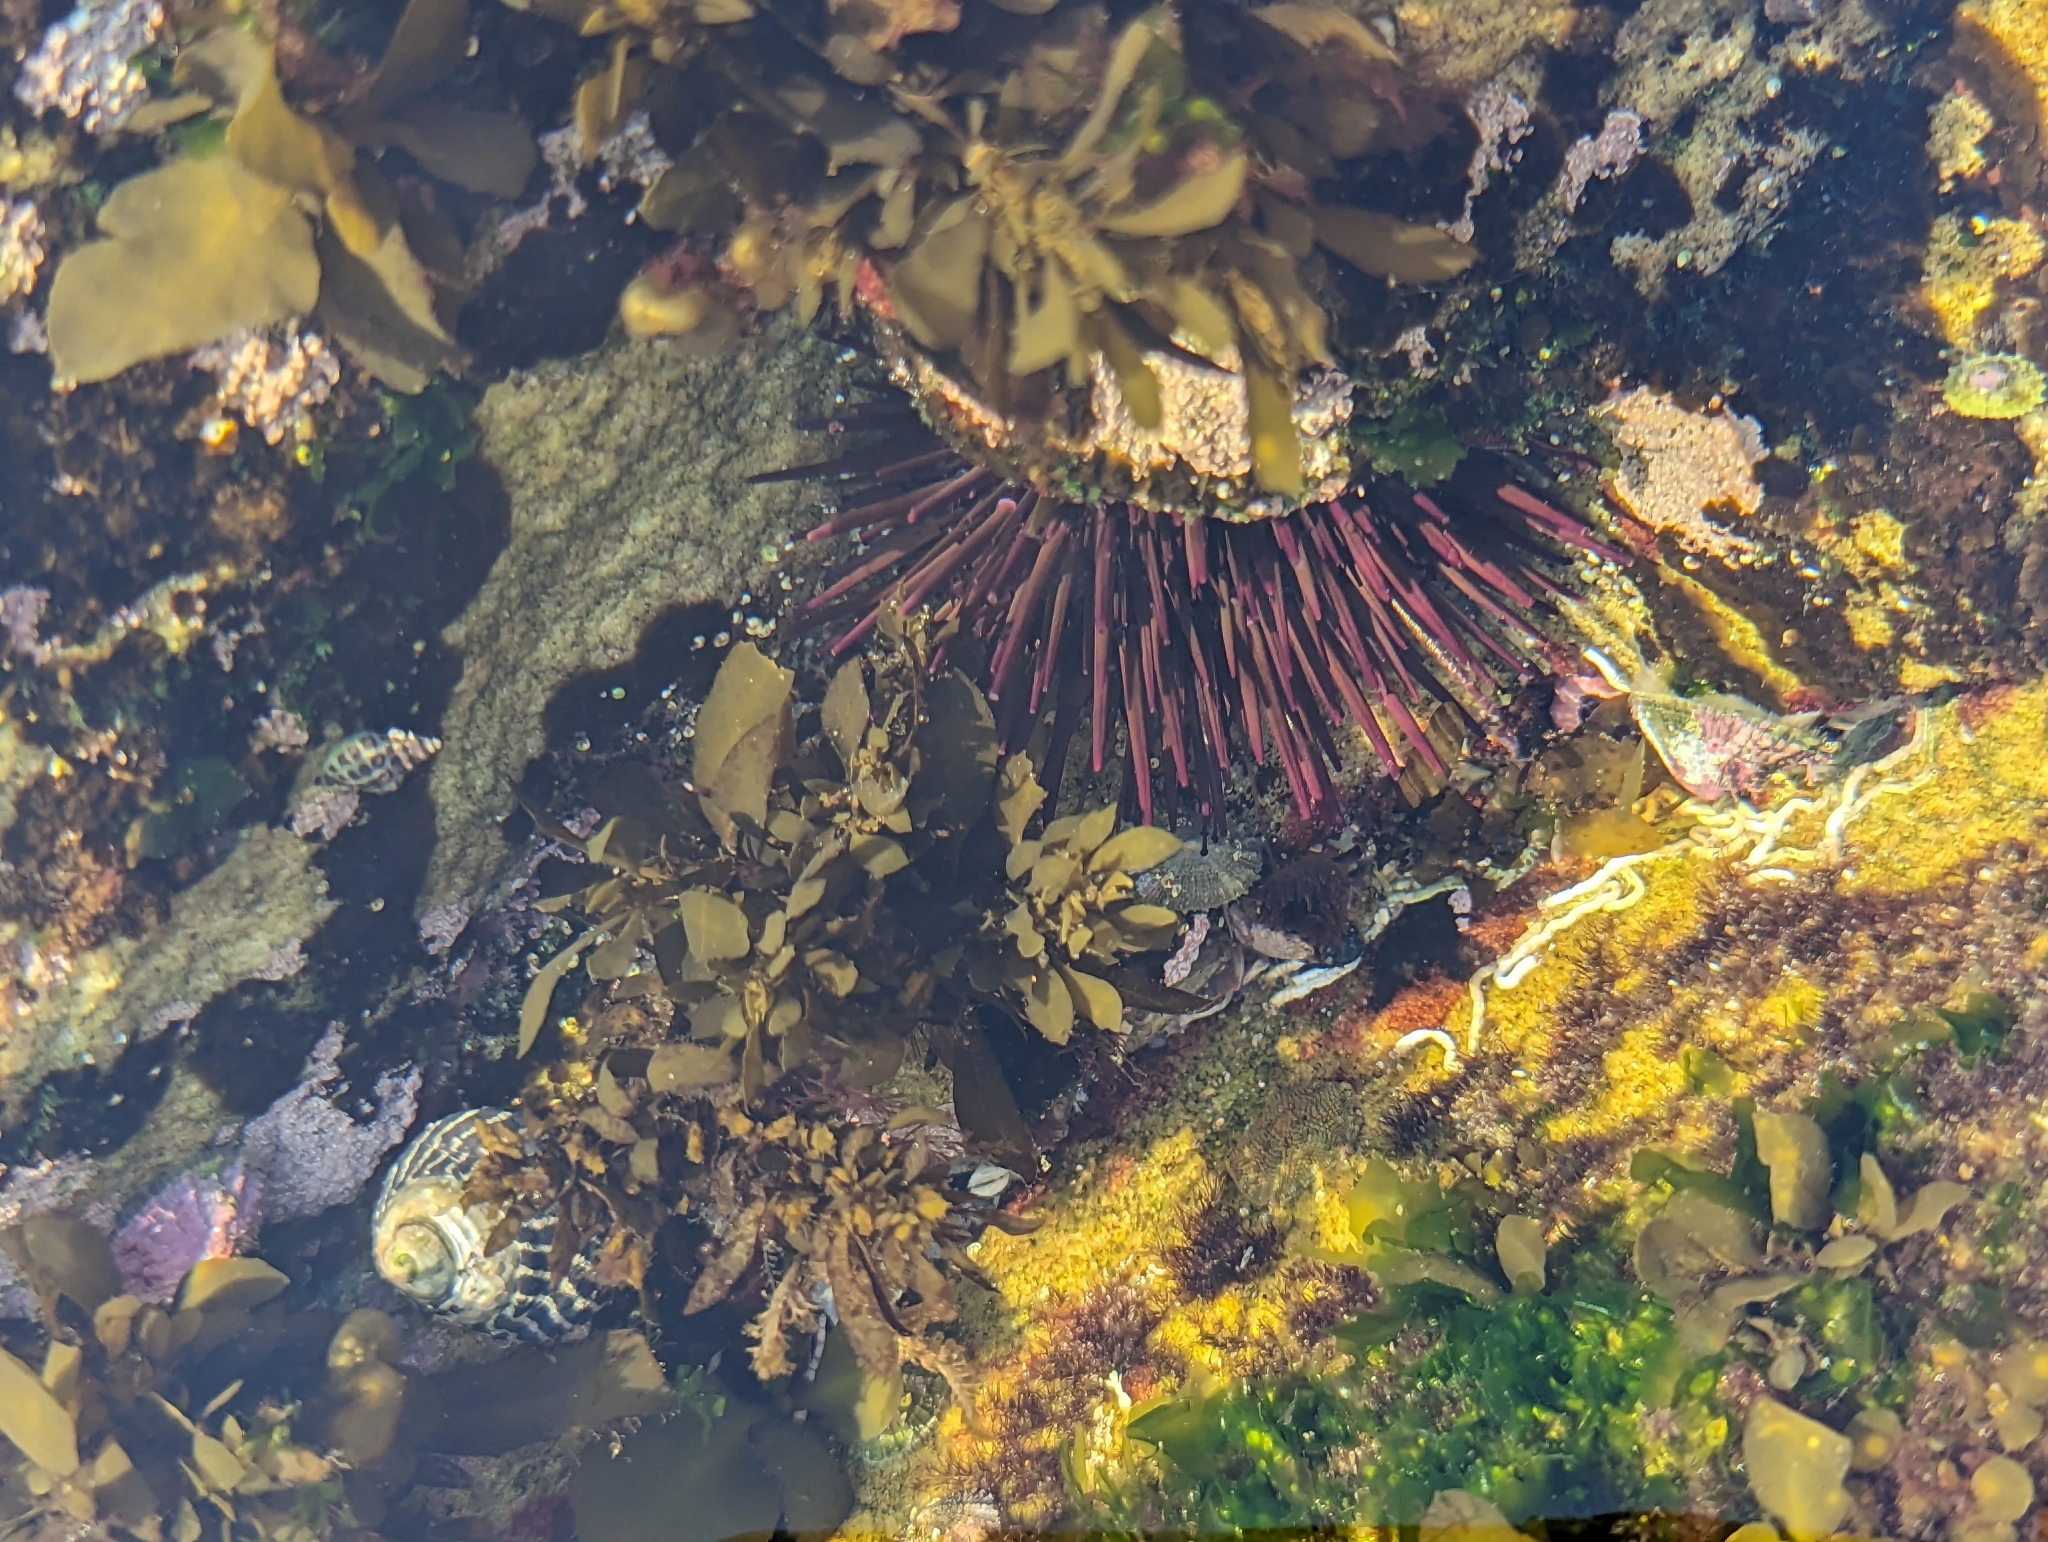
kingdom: Animalia
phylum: Echinodermata
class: Echinoidea
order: Camarodonta
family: Echinometridae
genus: Heliocidaris
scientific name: Heliocidaris erythrogramma
